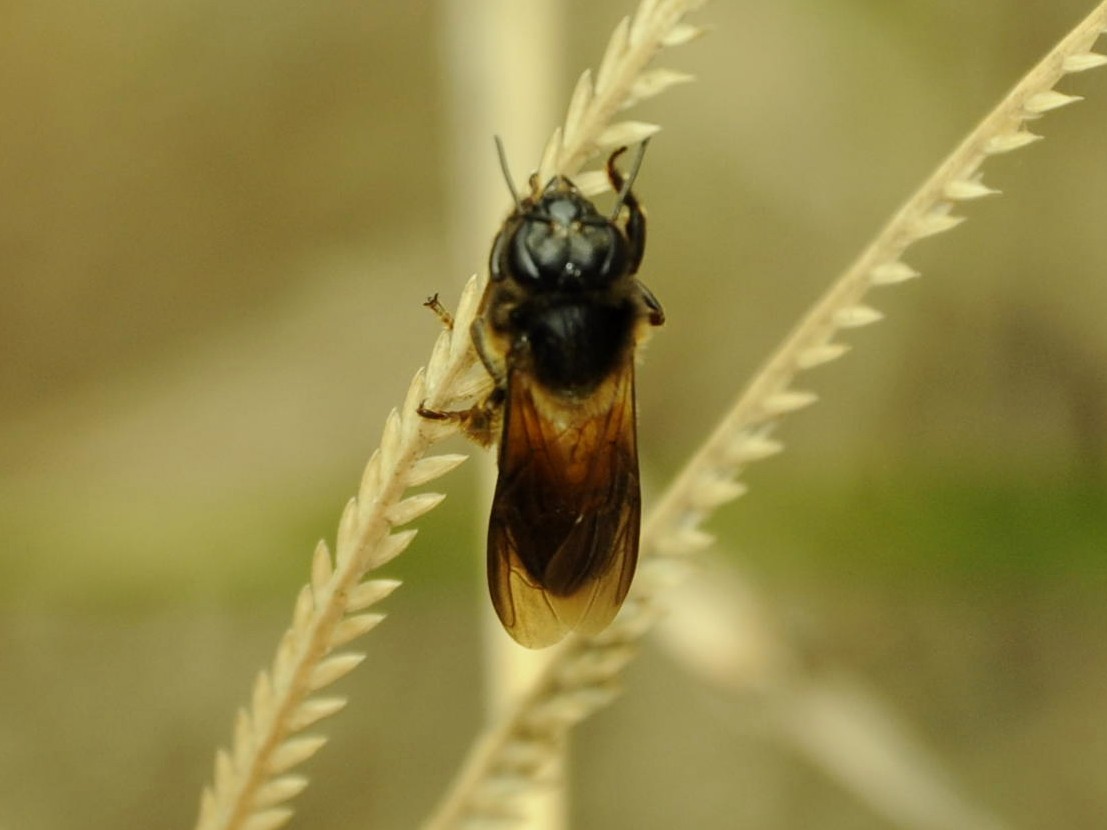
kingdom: Animalia
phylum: Arthropoda
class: Insecta
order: Hymenoptera
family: Apidae
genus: Apis
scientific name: Apis dorsata
